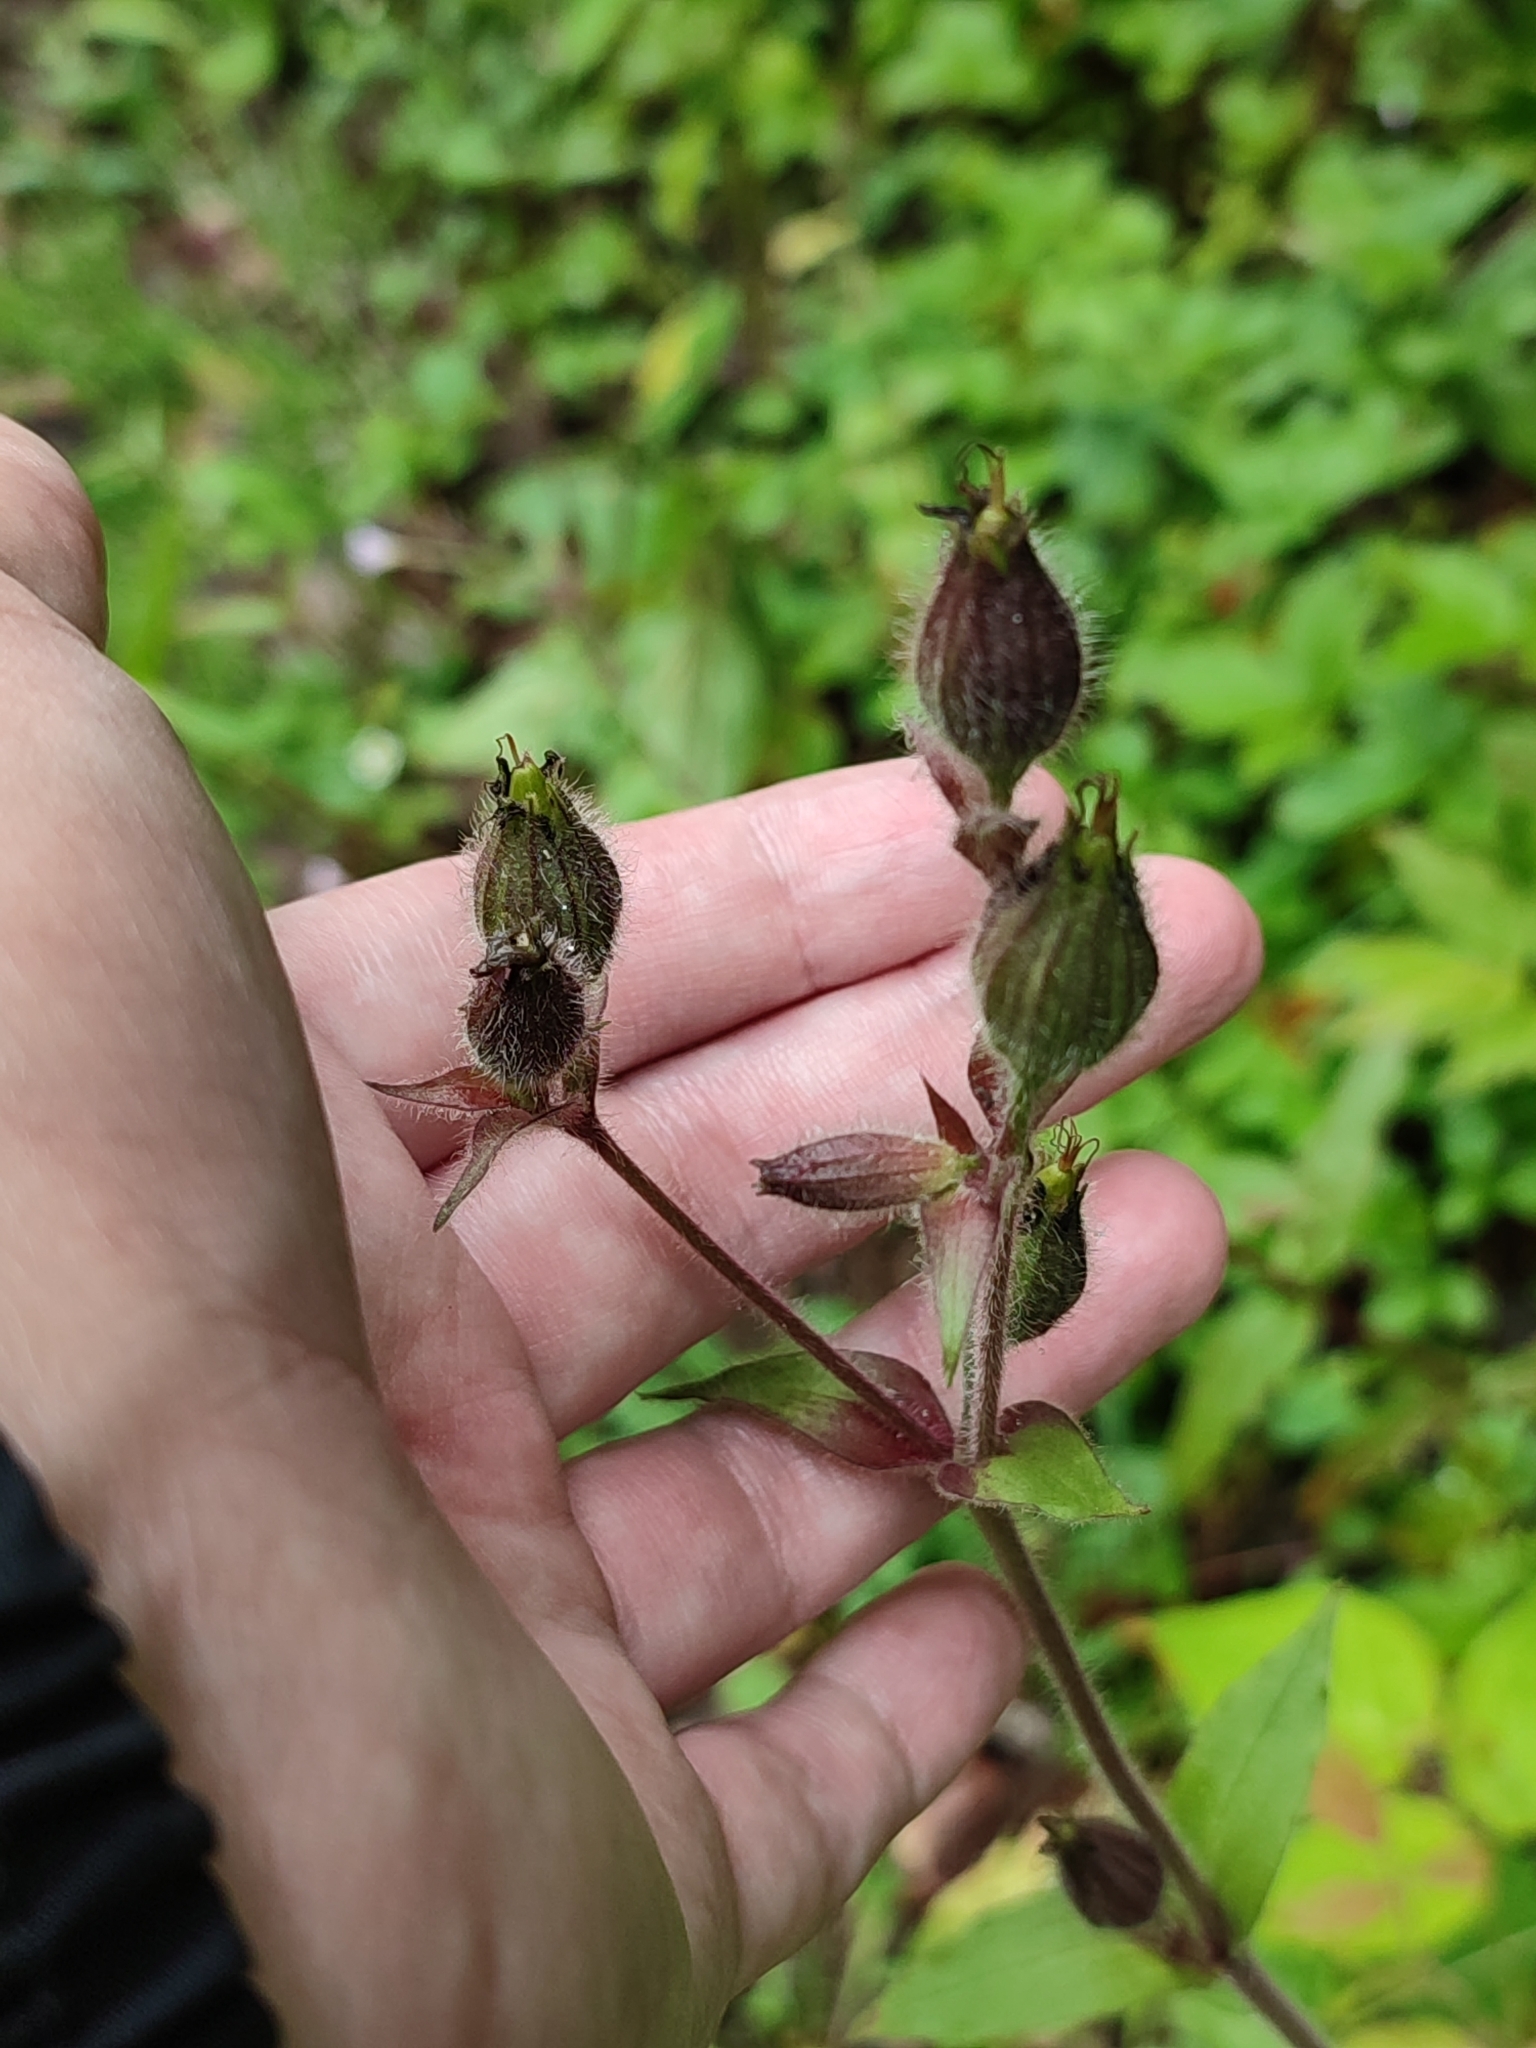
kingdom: Plantae
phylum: Tracheophyta
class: Magnoliopsida
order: Caryophyllales
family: Caryophyllaceae
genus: Silene
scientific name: Silene dioica
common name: Red campion
